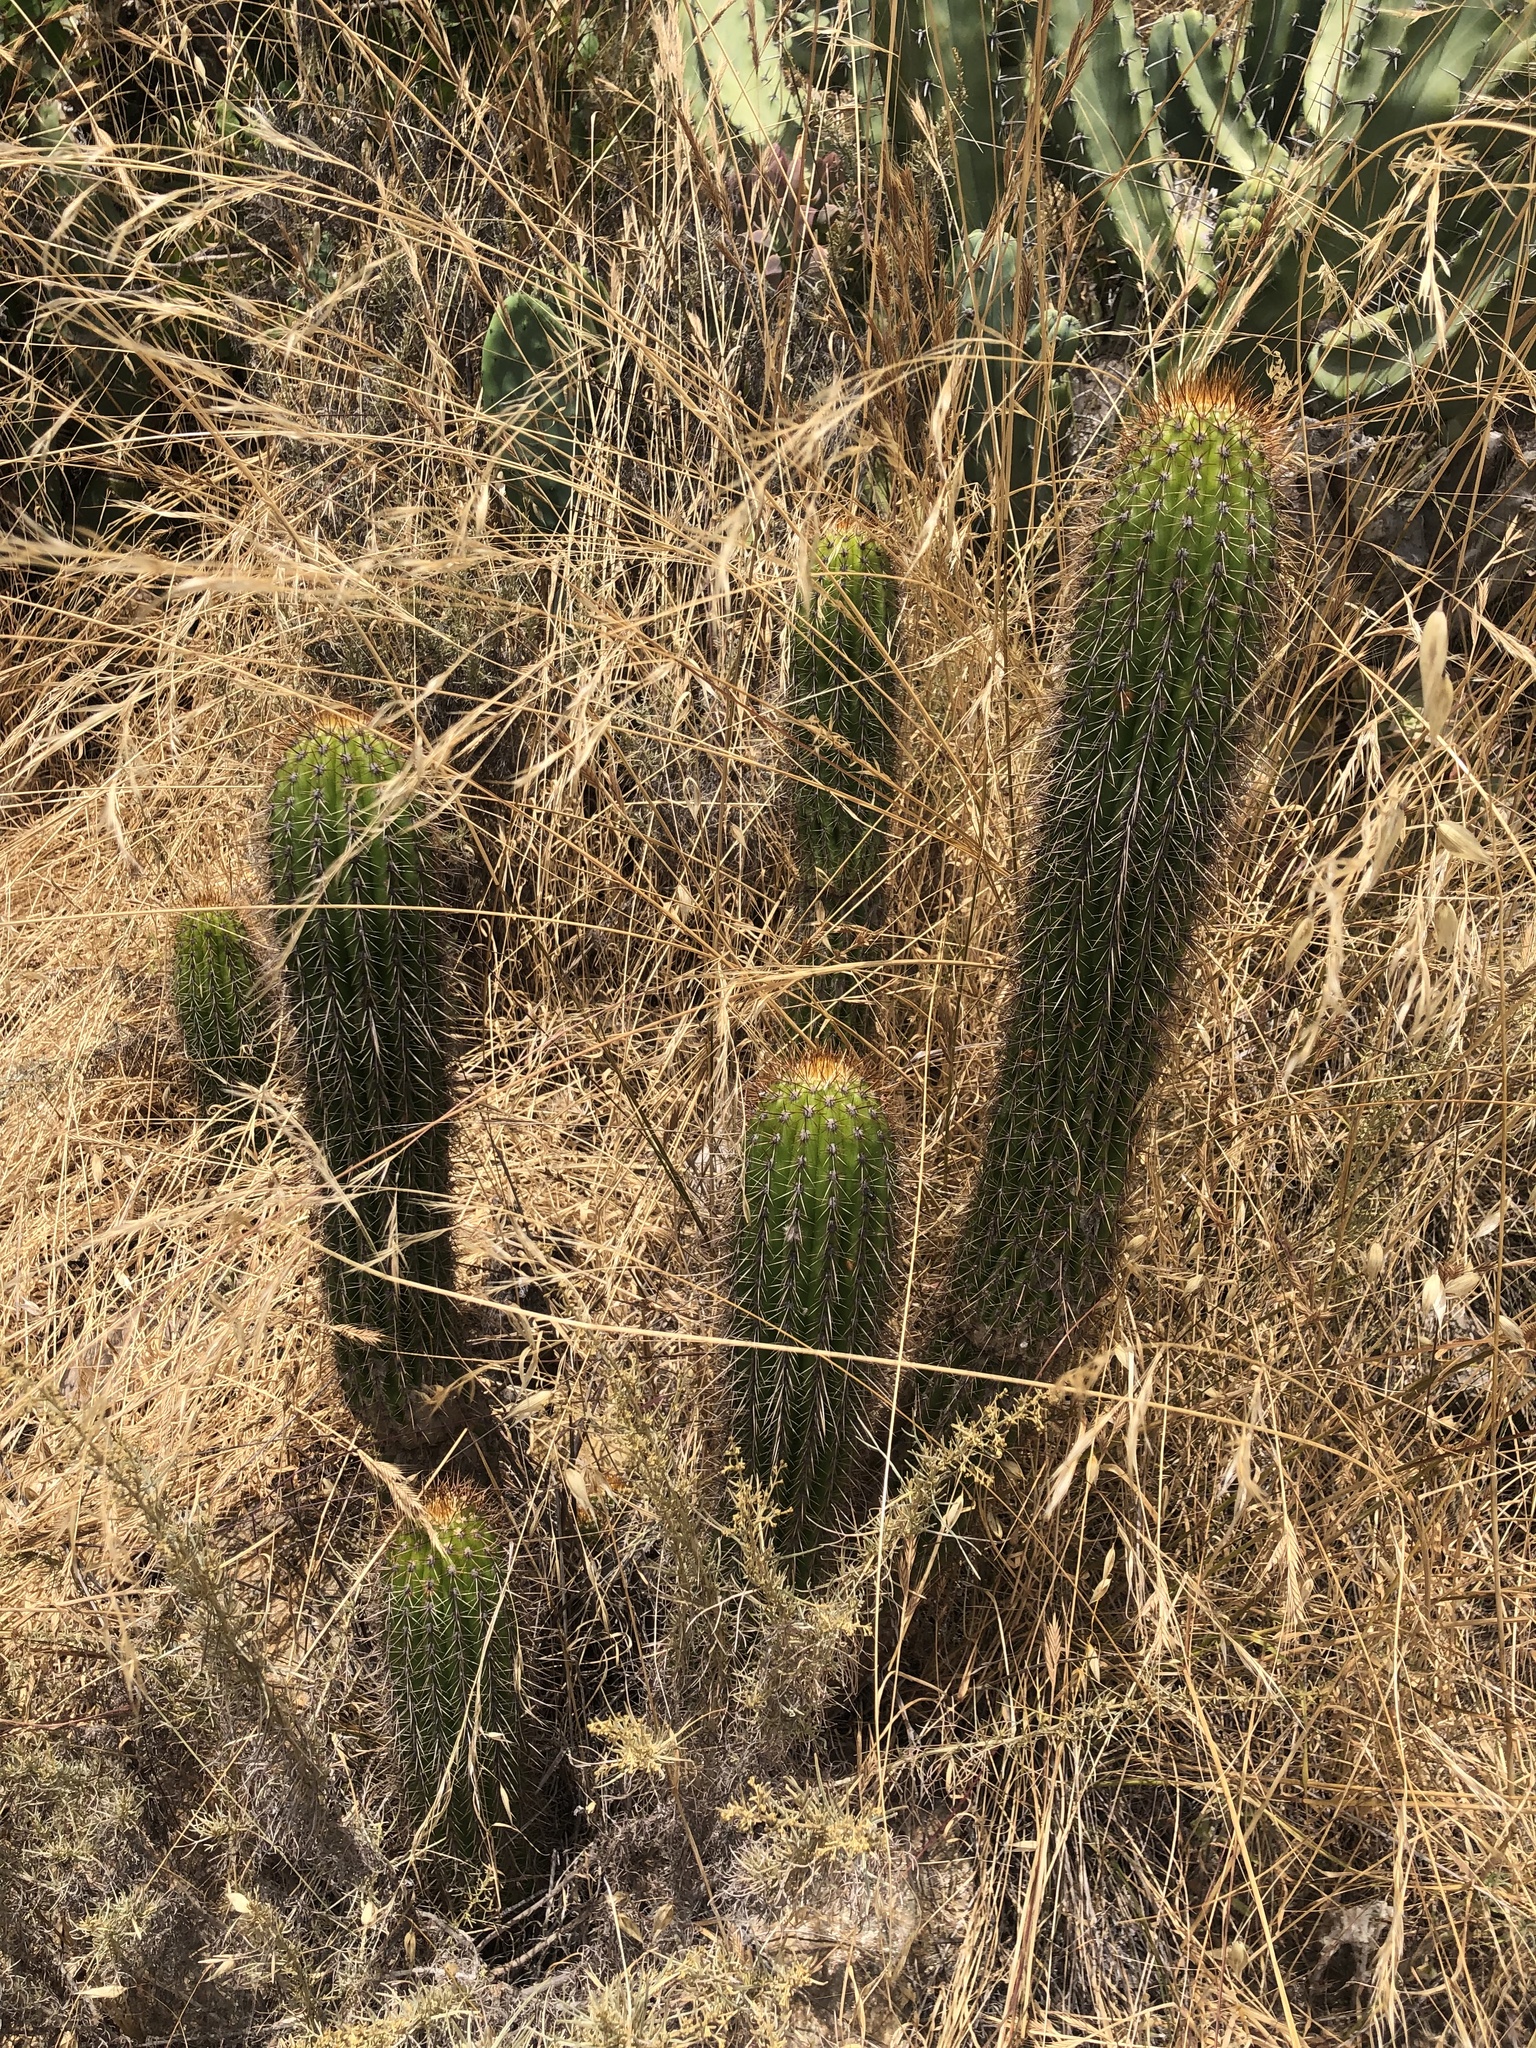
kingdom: Plantae
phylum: Tracheophyta
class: Magnoliopsida
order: Caryophyllales
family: Cactaceae
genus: Soehrensia
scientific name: Soehrensia spachiana
